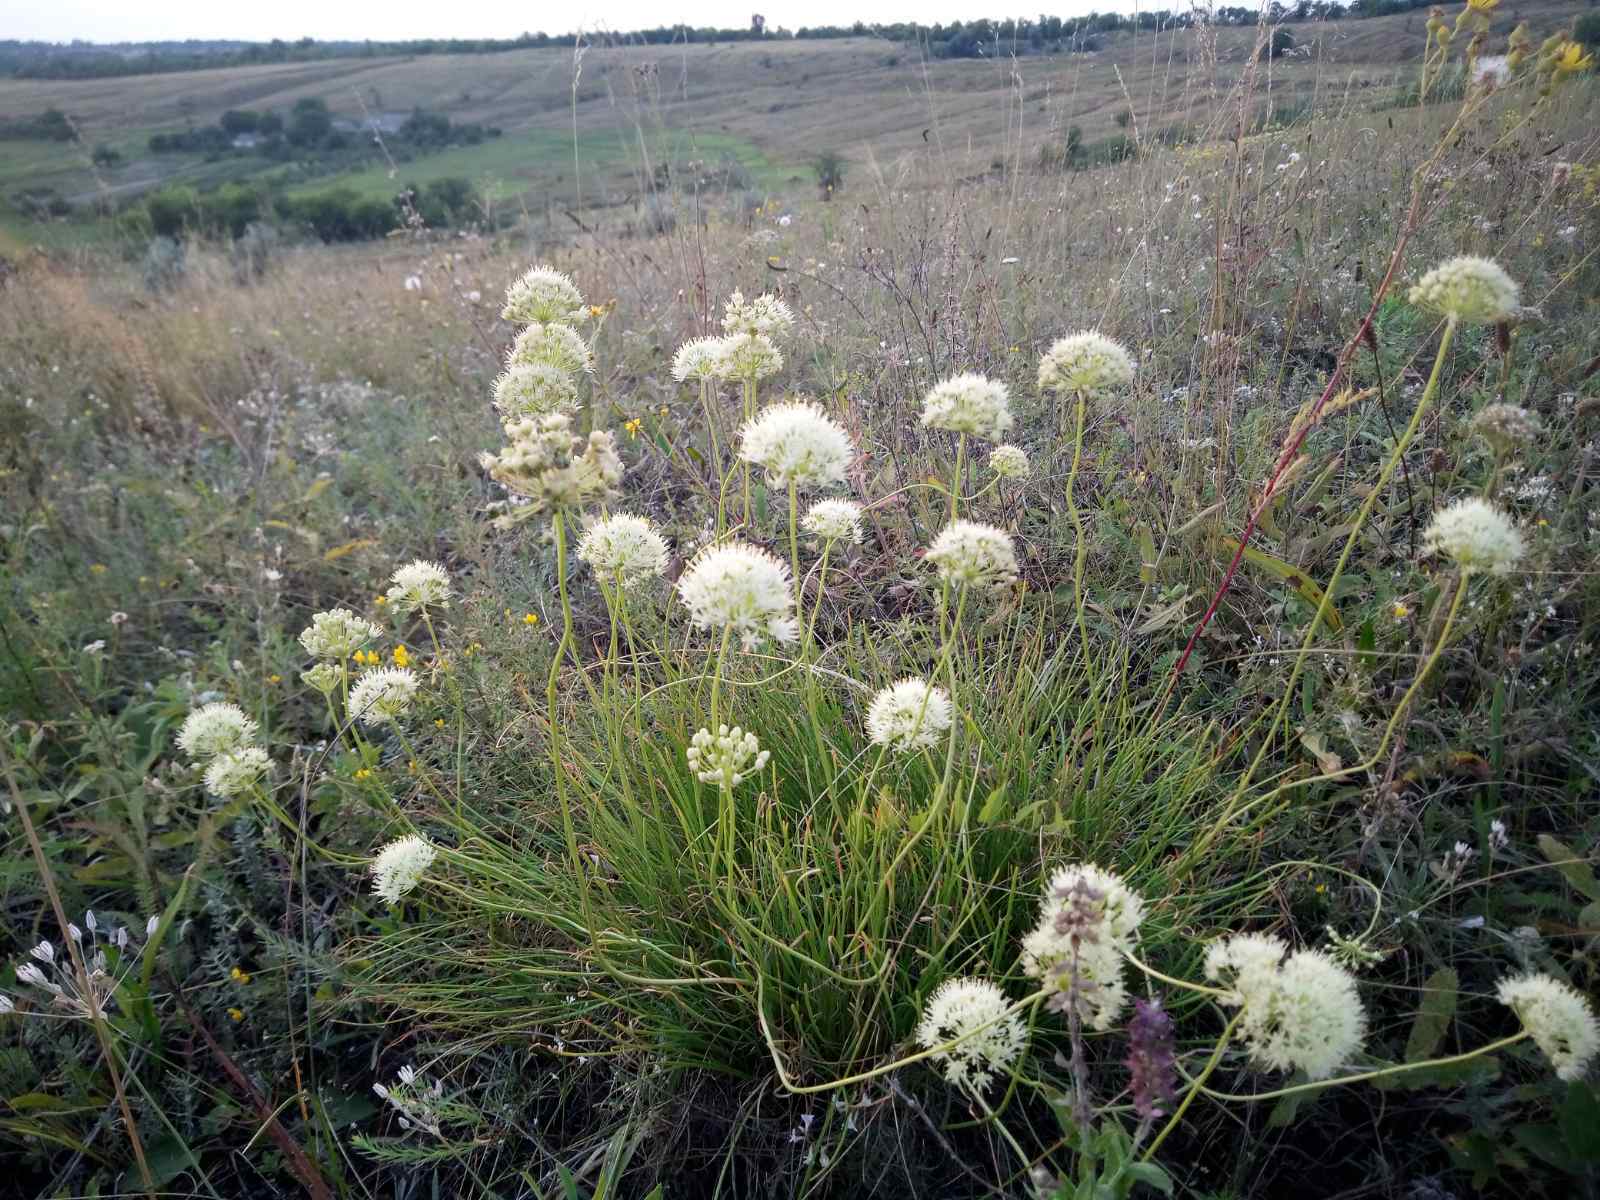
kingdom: Plantae
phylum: Tracheophyta
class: Liliopsida
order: Asparagales
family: Amaryllidaceae
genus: Allium
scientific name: Allium flavescens
